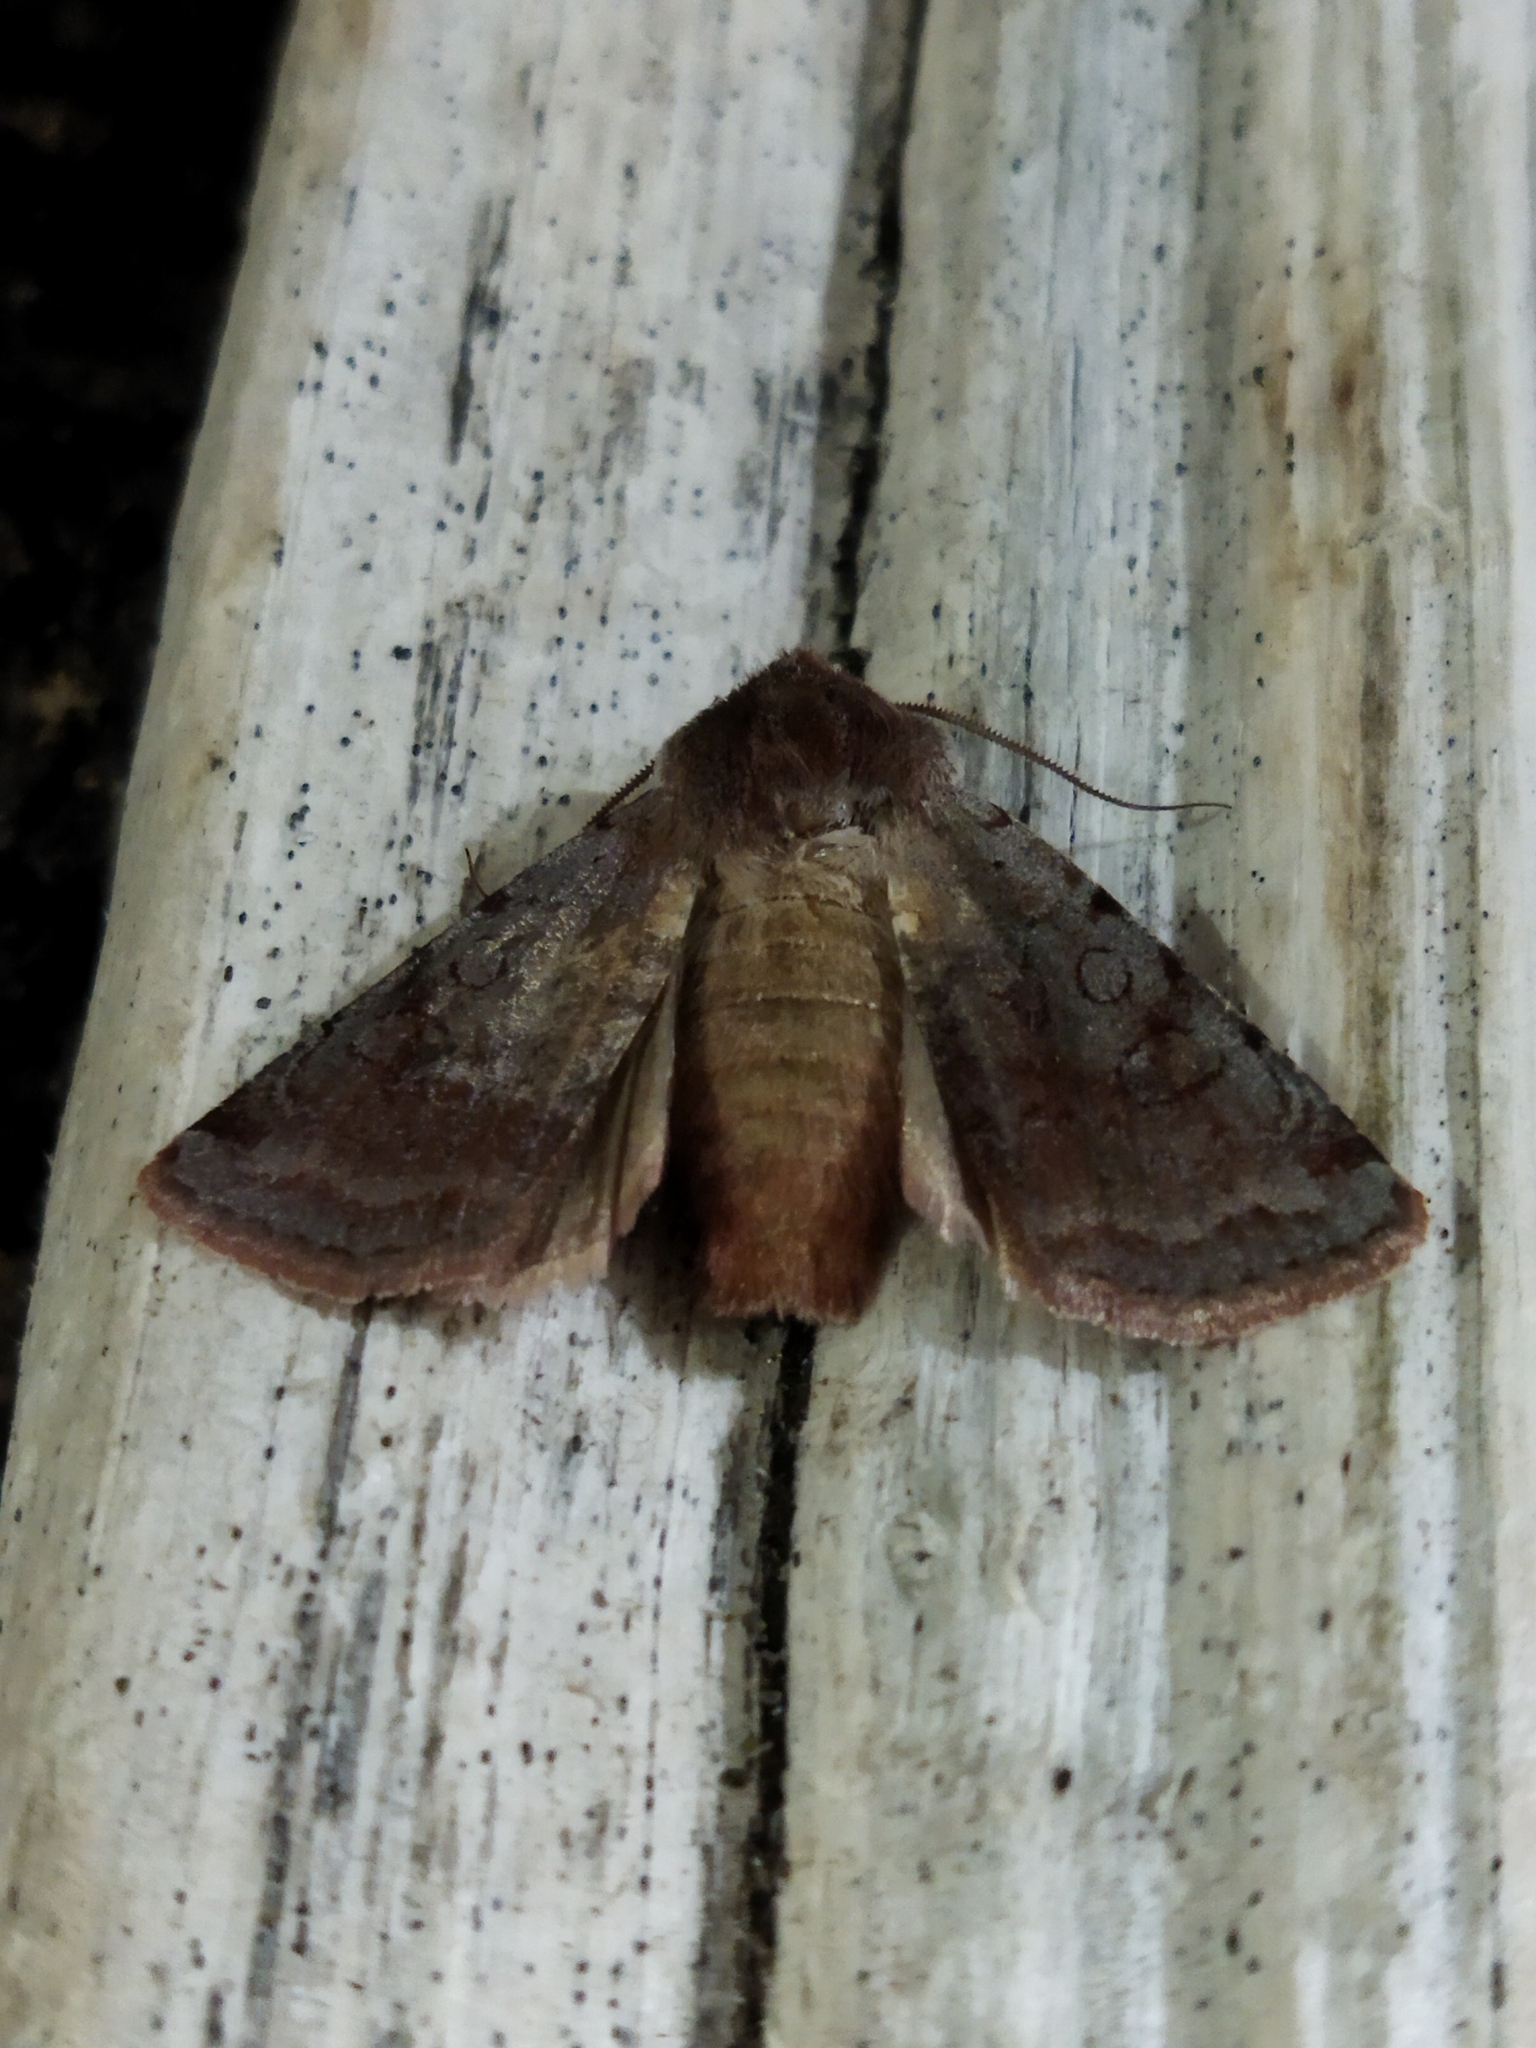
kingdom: Animalia
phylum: Arthropoda
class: Insecta
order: Lepidoptera
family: Noctuidae
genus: Cerastis
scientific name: Cerastis rubricosa
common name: Red chestnut
